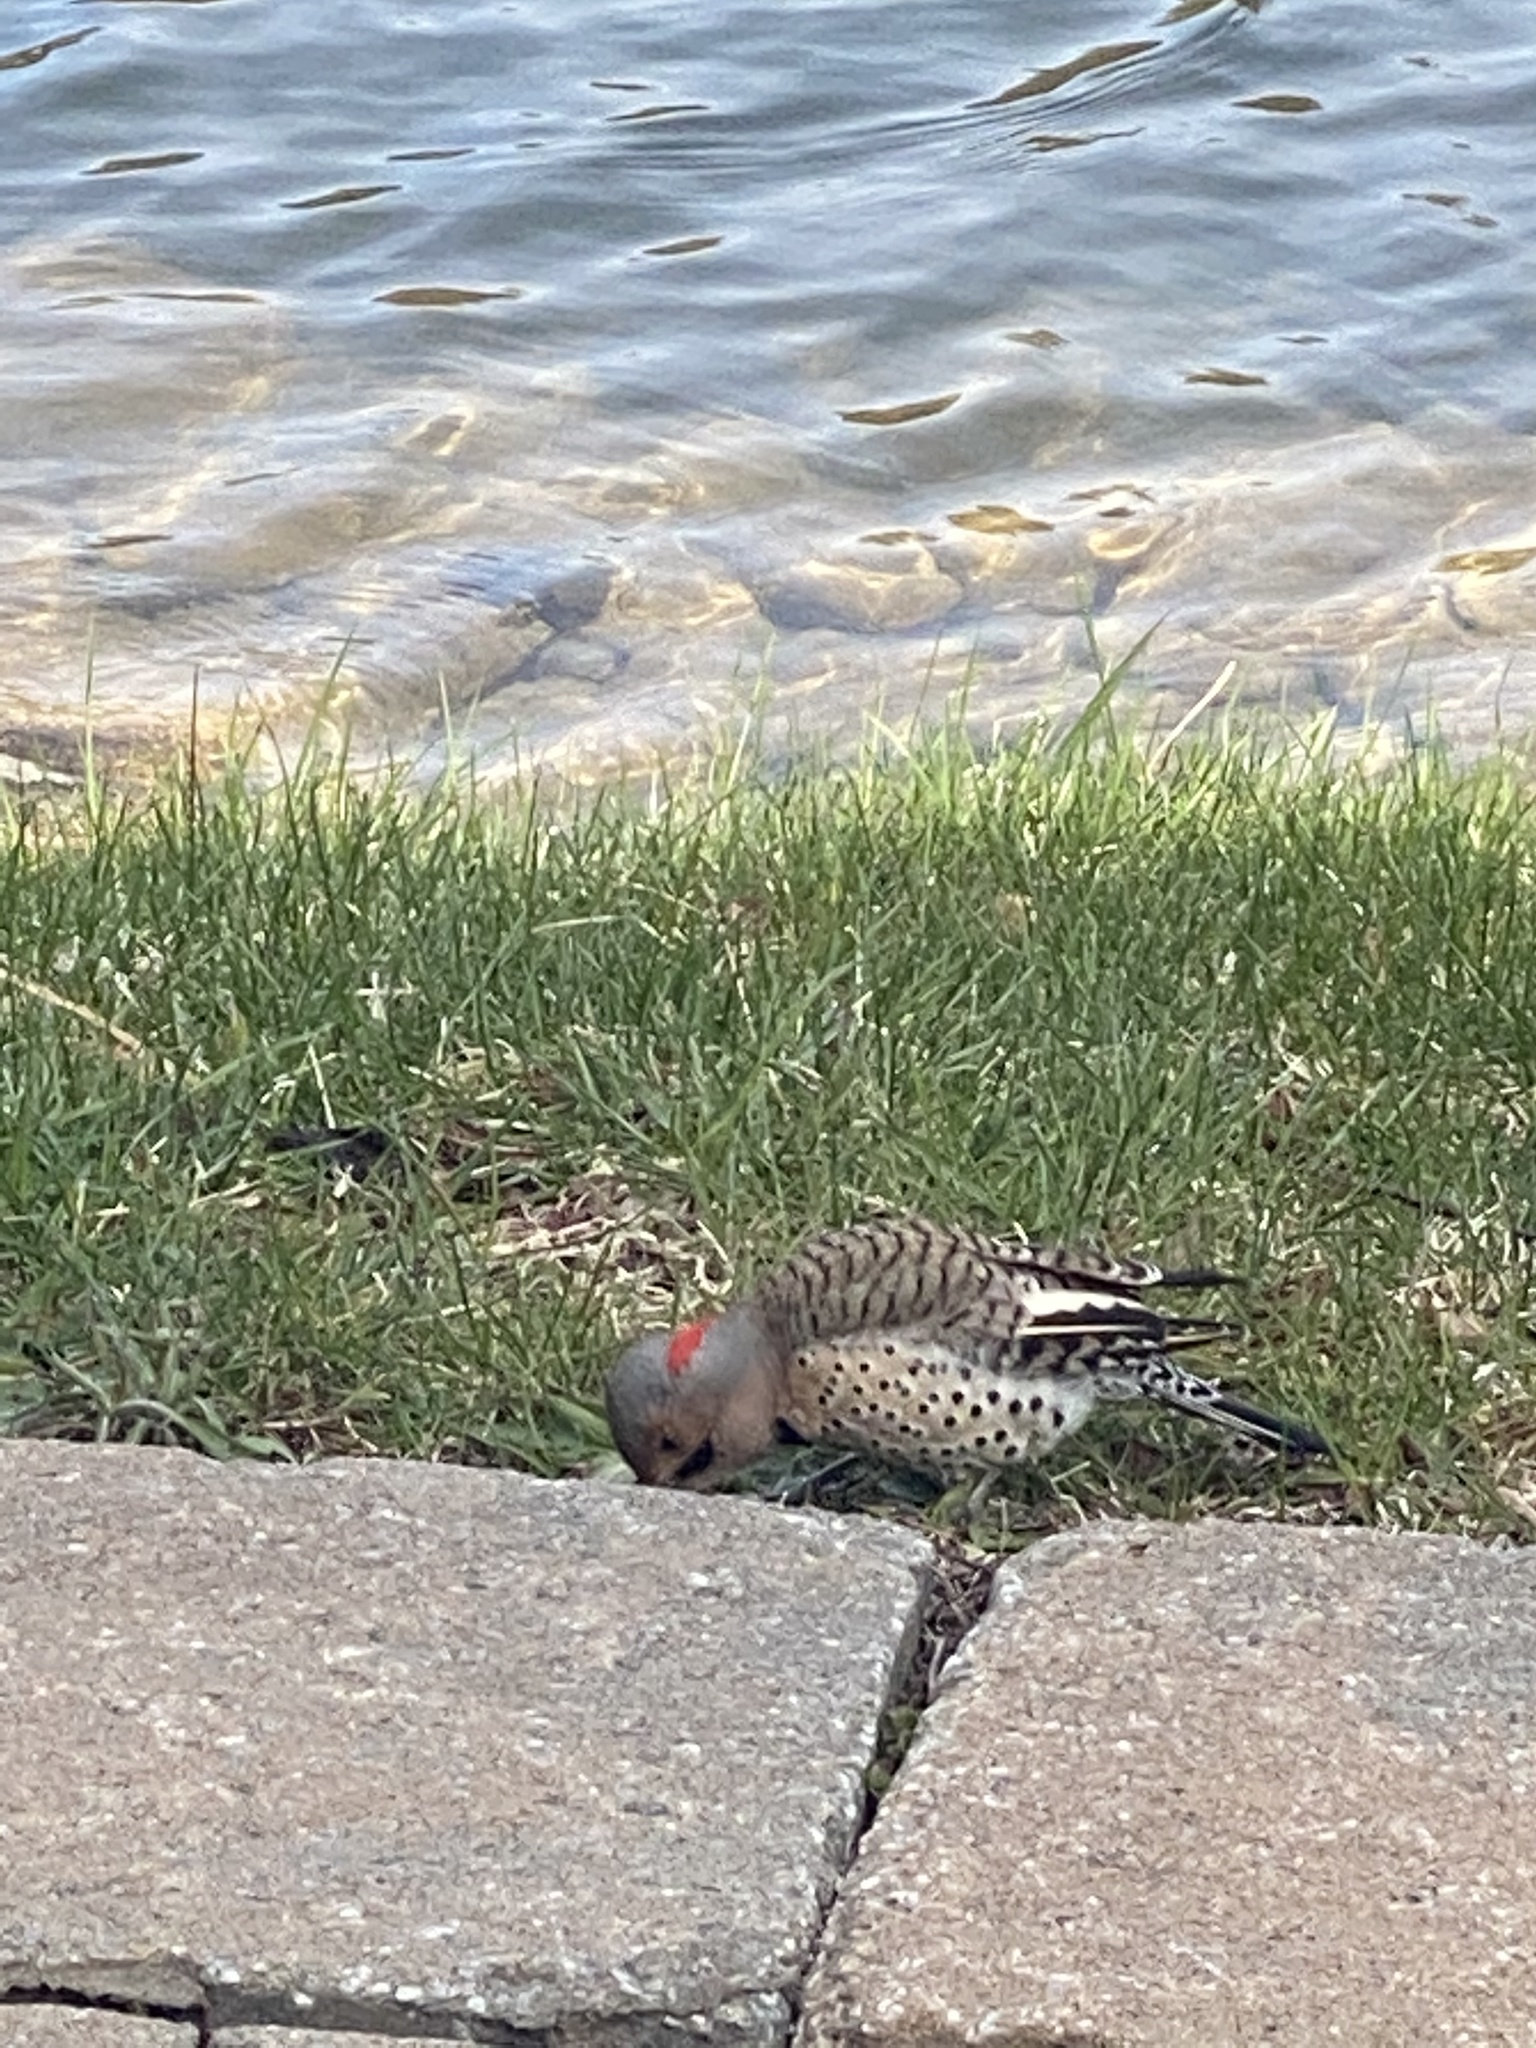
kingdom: Animalia
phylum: Chordata
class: Aves
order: Piciformes
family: Picidae
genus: Colaptes
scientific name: Colaptes auratus
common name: Northern flicker
